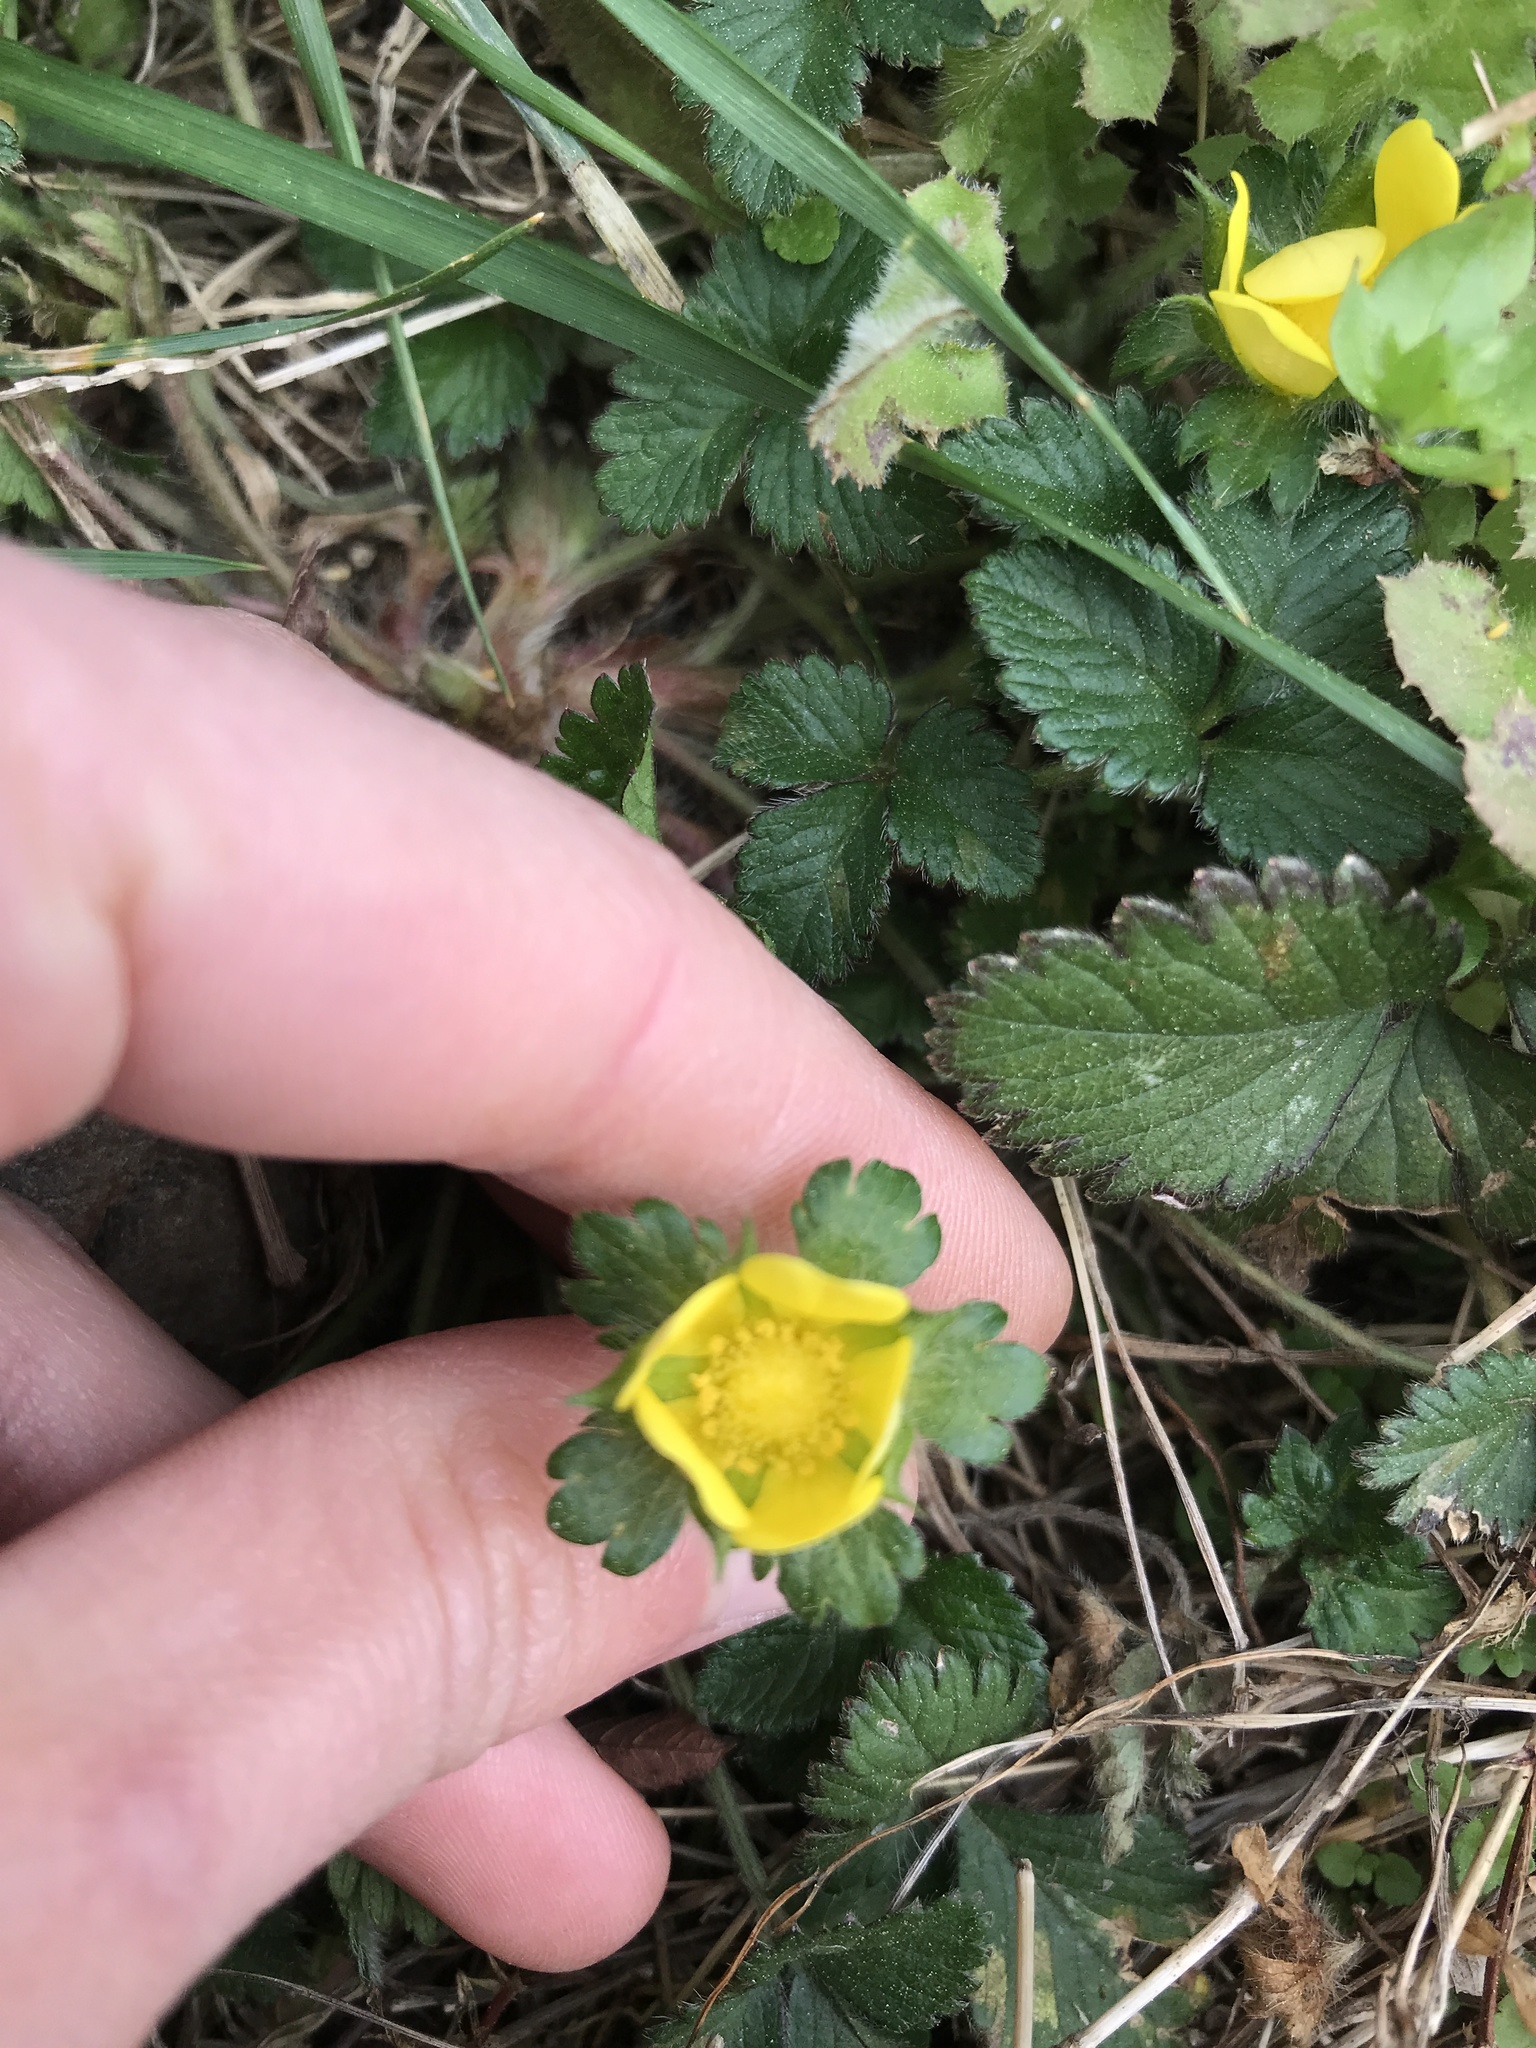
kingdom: Plantae
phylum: Tracheophyta
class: Magnoliopsida
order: Rosales
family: Rosaceae
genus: Potentilla
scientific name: Potentilla indica
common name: Yellow-flowered strawberry
